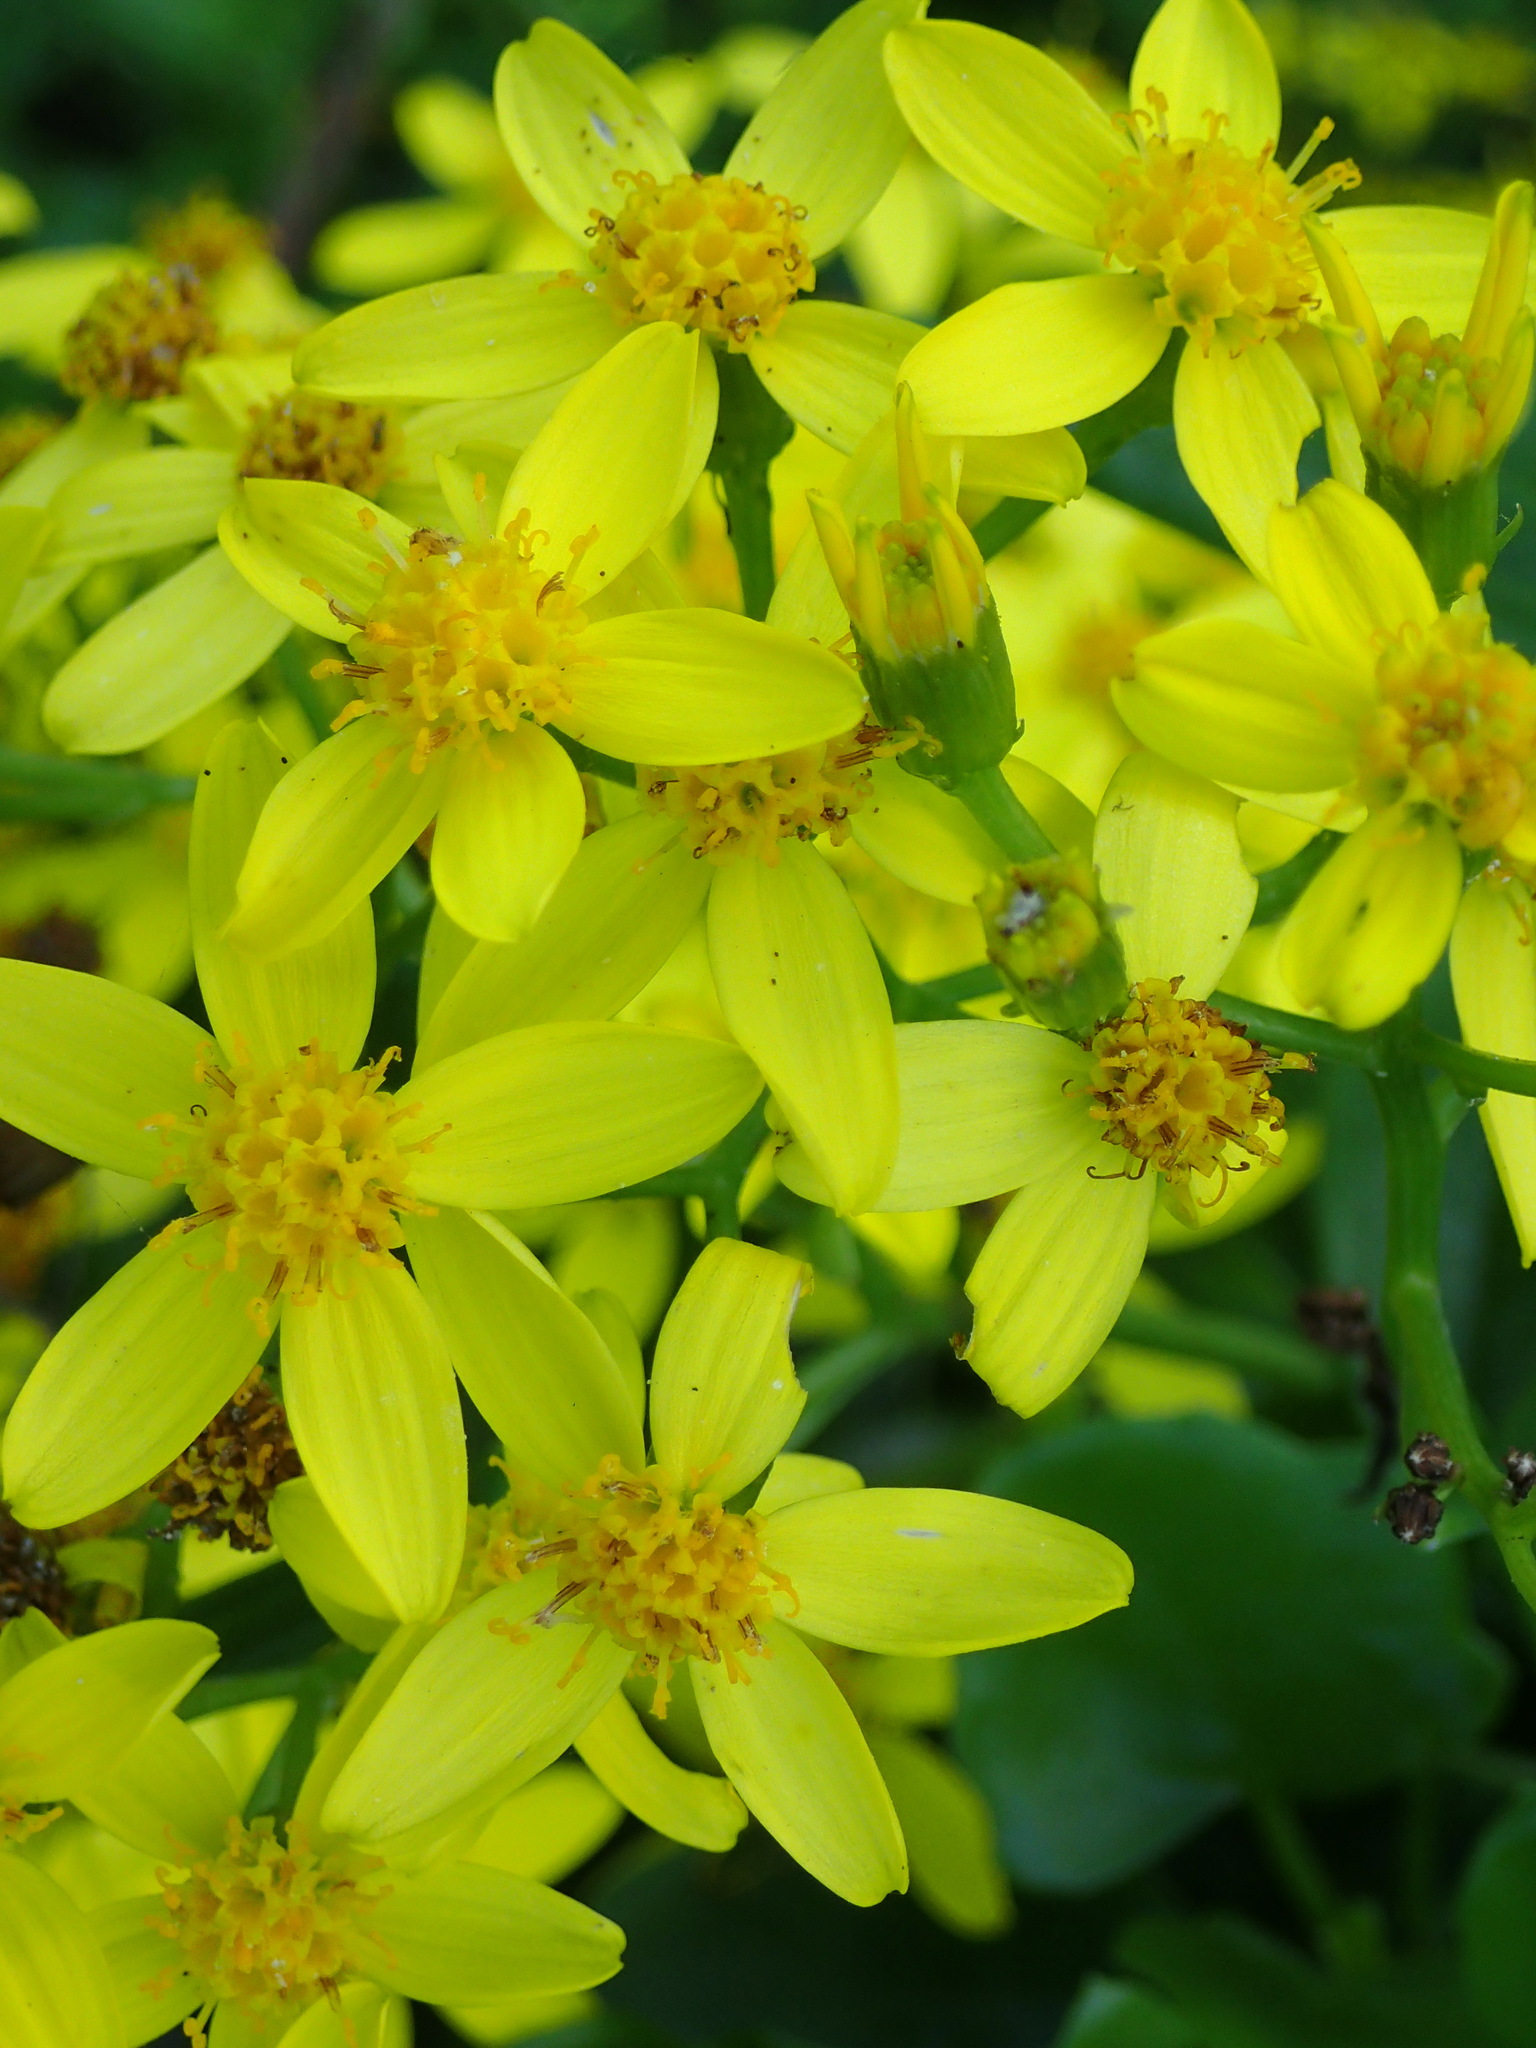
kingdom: Plantae
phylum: Tracheophyta
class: Magnoliopsida
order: Asterales
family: Asteraceae
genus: Senecio
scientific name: Senecio angulatus
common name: Climbing groundsel
